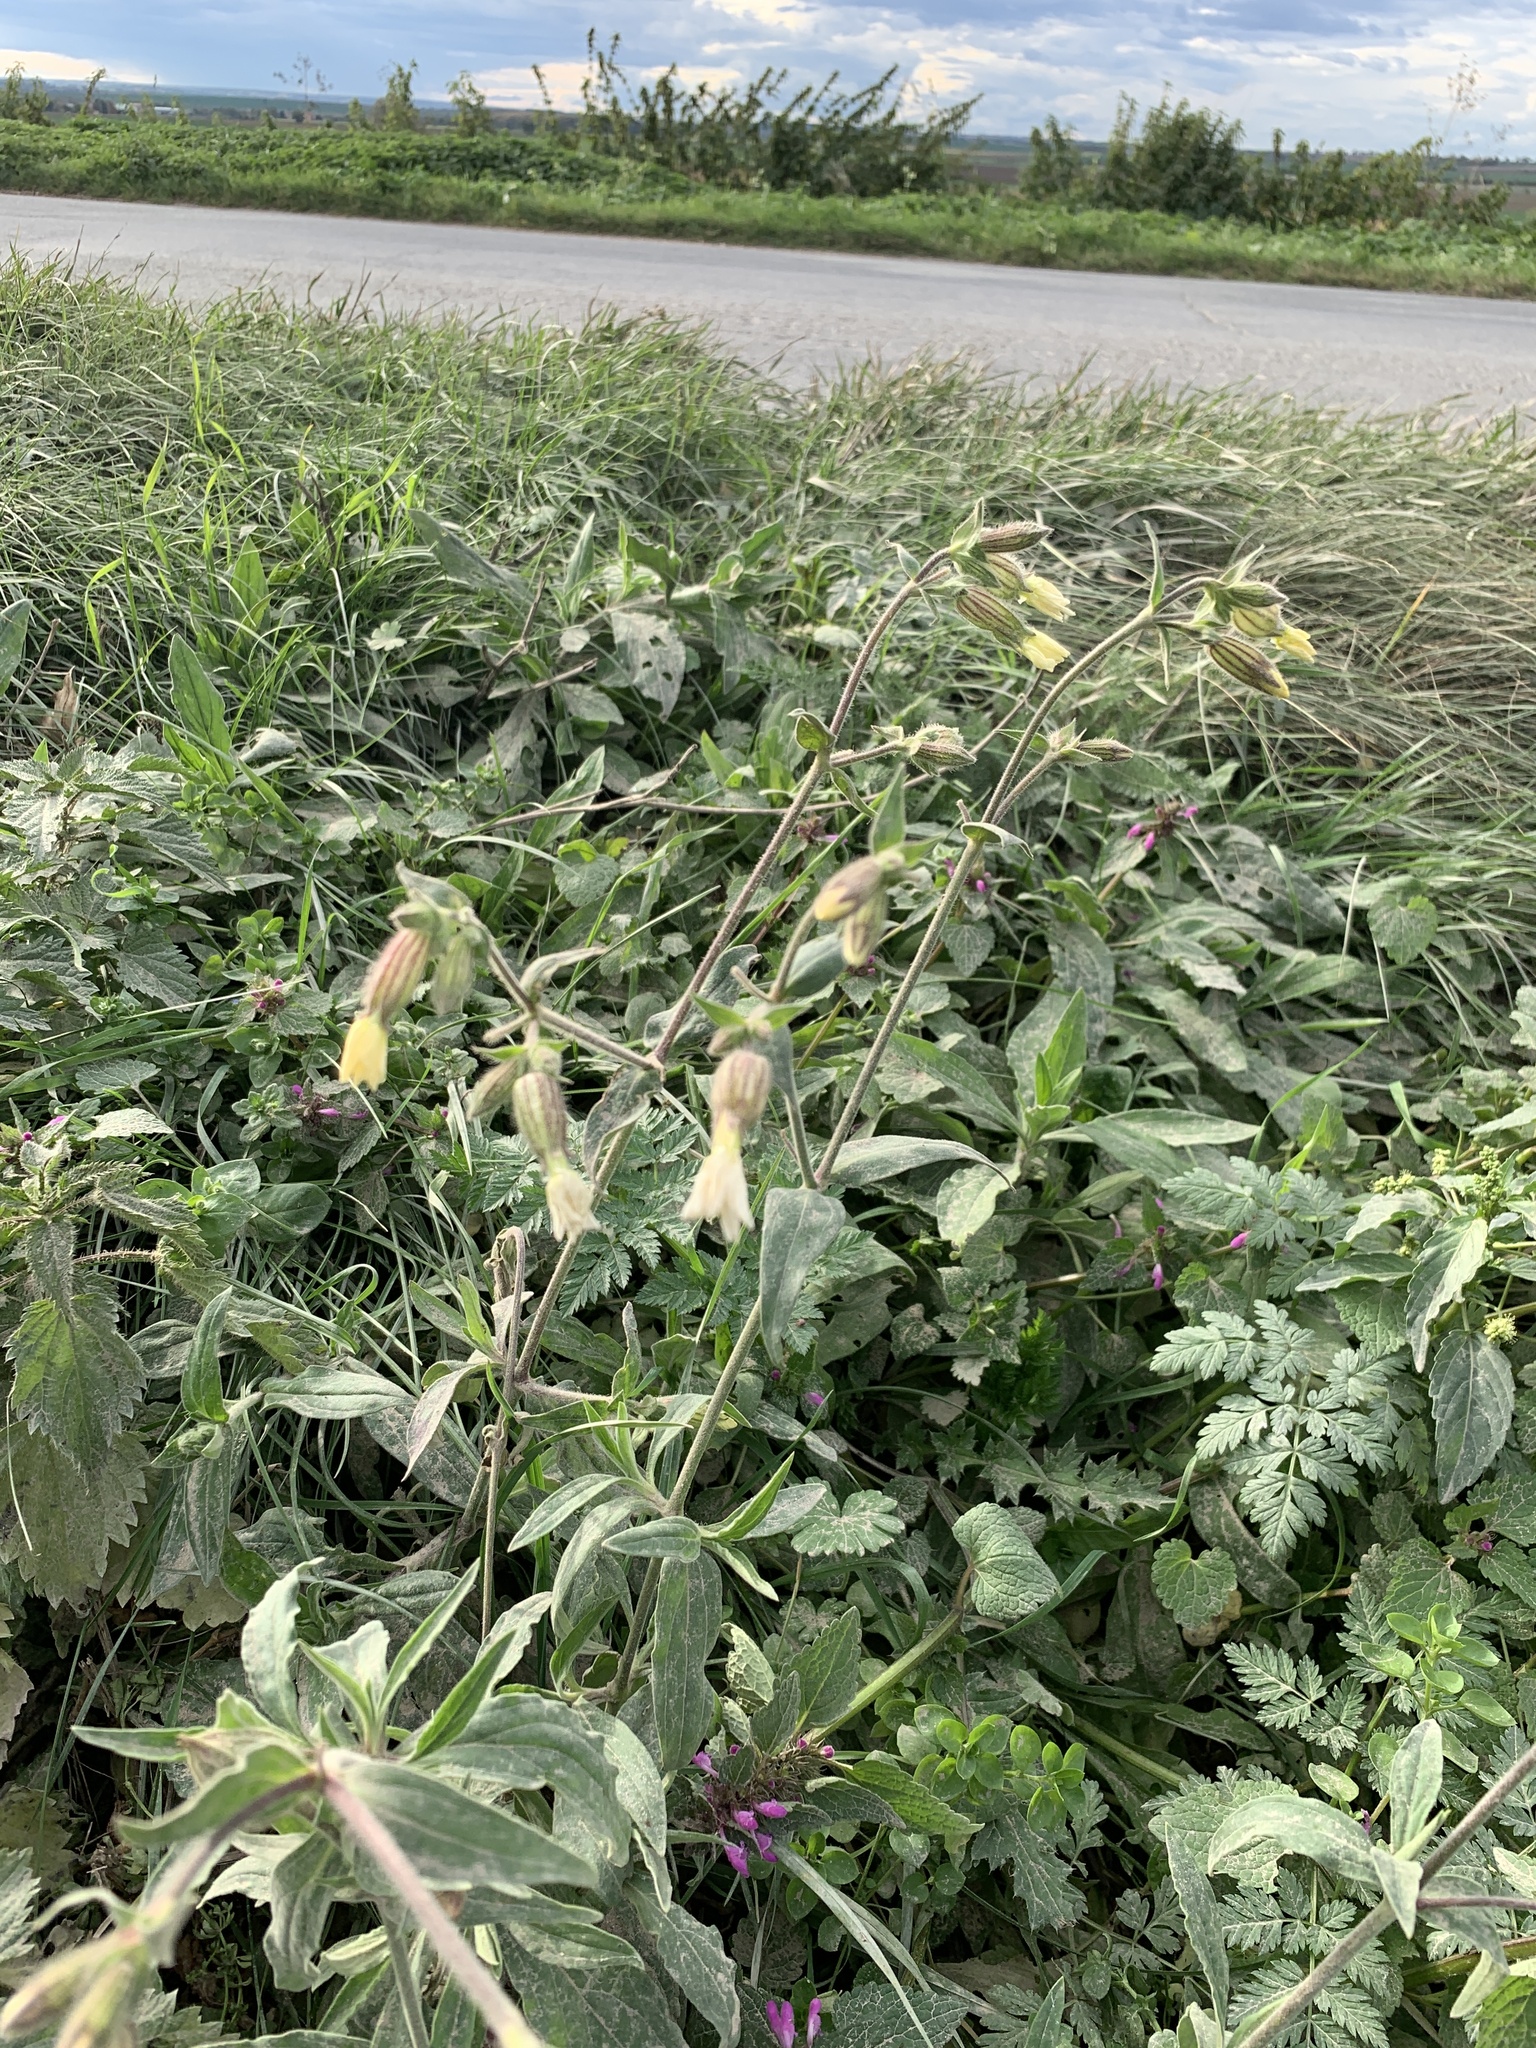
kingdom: Plantae
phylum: Tracheophyta
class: Magnoliopsida
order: Caryophyllales
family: Caryophyllaceae
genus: Silene
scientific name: Silene latifolia
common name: White campion
